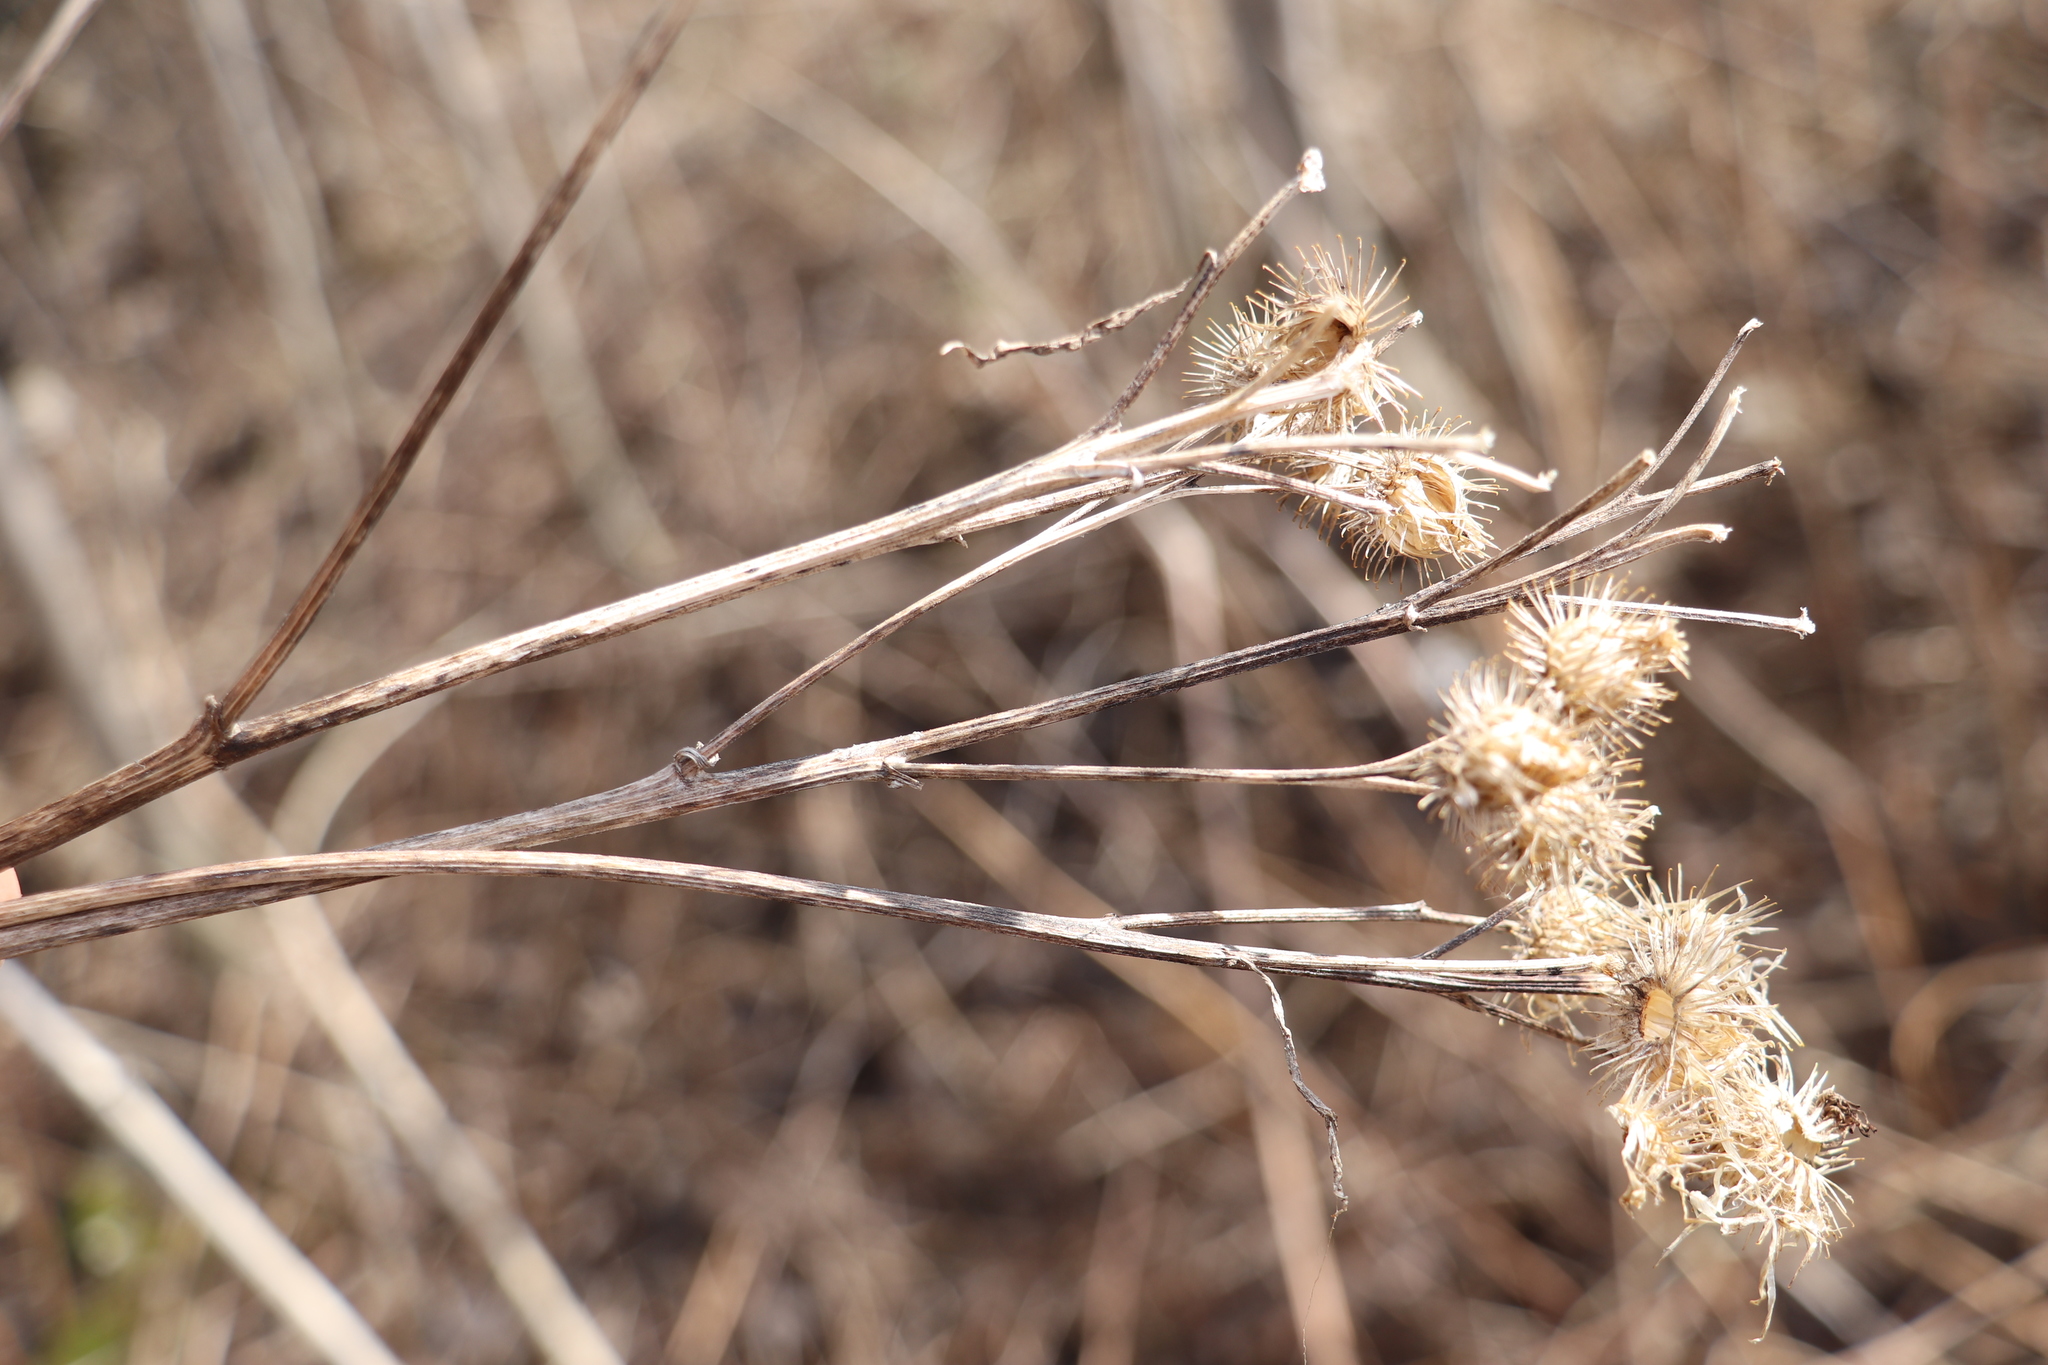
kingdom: Plantae
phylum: Tracheophyta
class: Magnoliopsida
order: Asterales
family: Asteraceae
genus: Arctium
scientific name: Arctium tomentosum
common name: Woolly burdock
